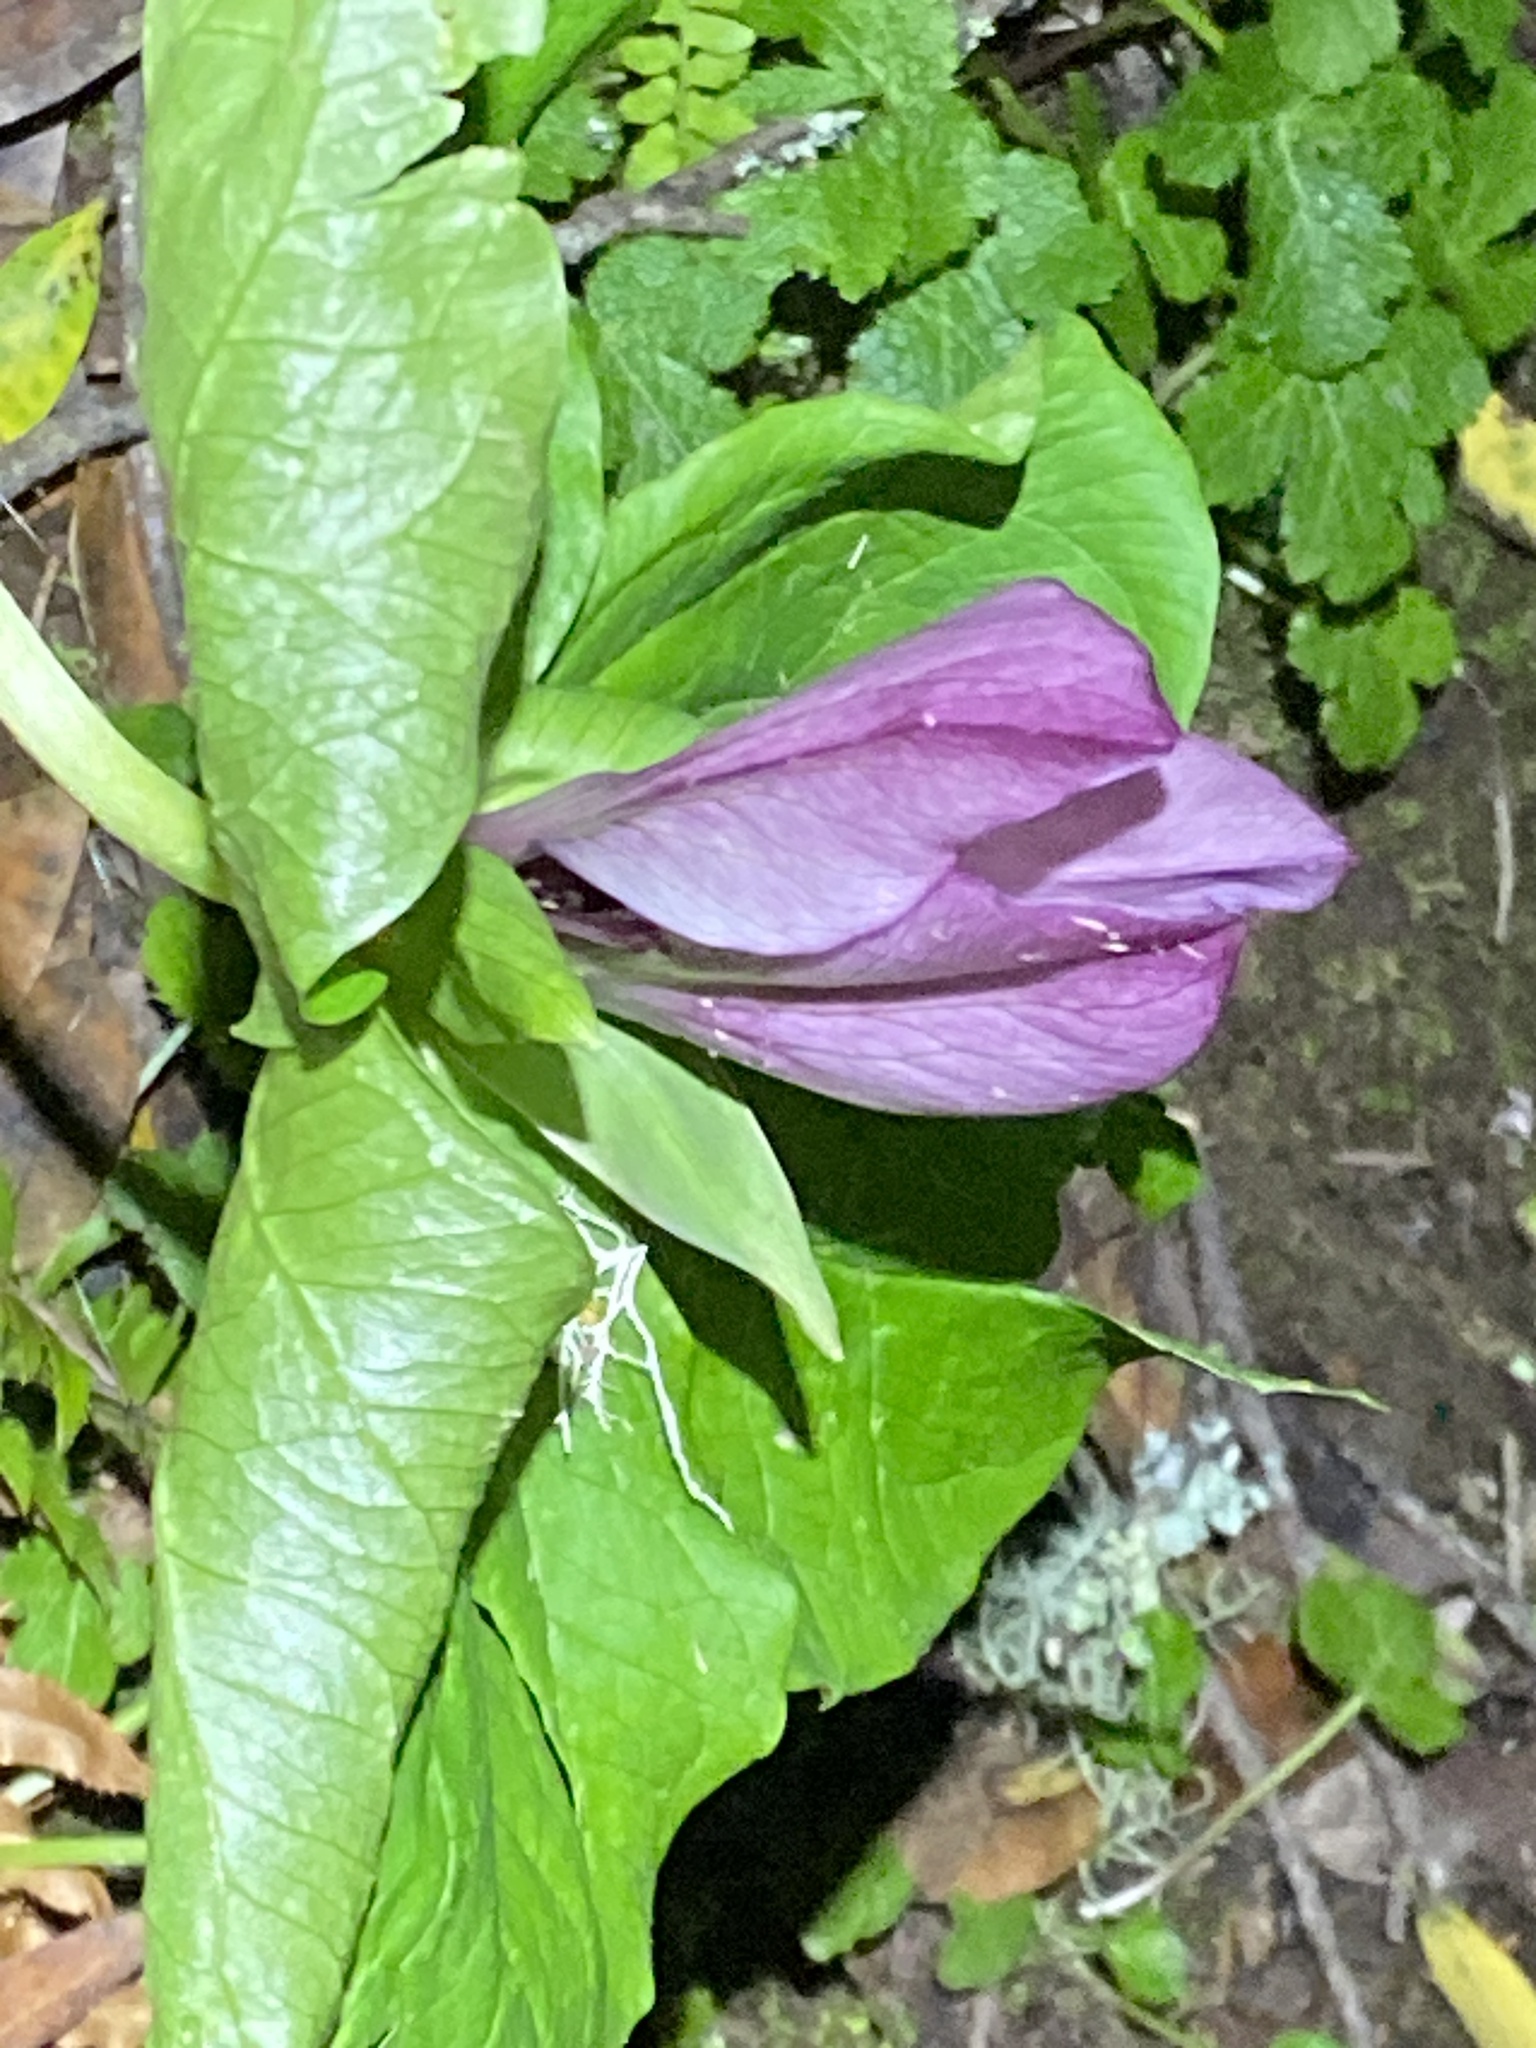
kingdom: Plantae
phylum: Tracheophyta
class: Liliopsida
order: Liliales
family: Melanthiaceae
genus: Trillium
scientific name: Trillium chloropetalum
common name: Giant trillium
